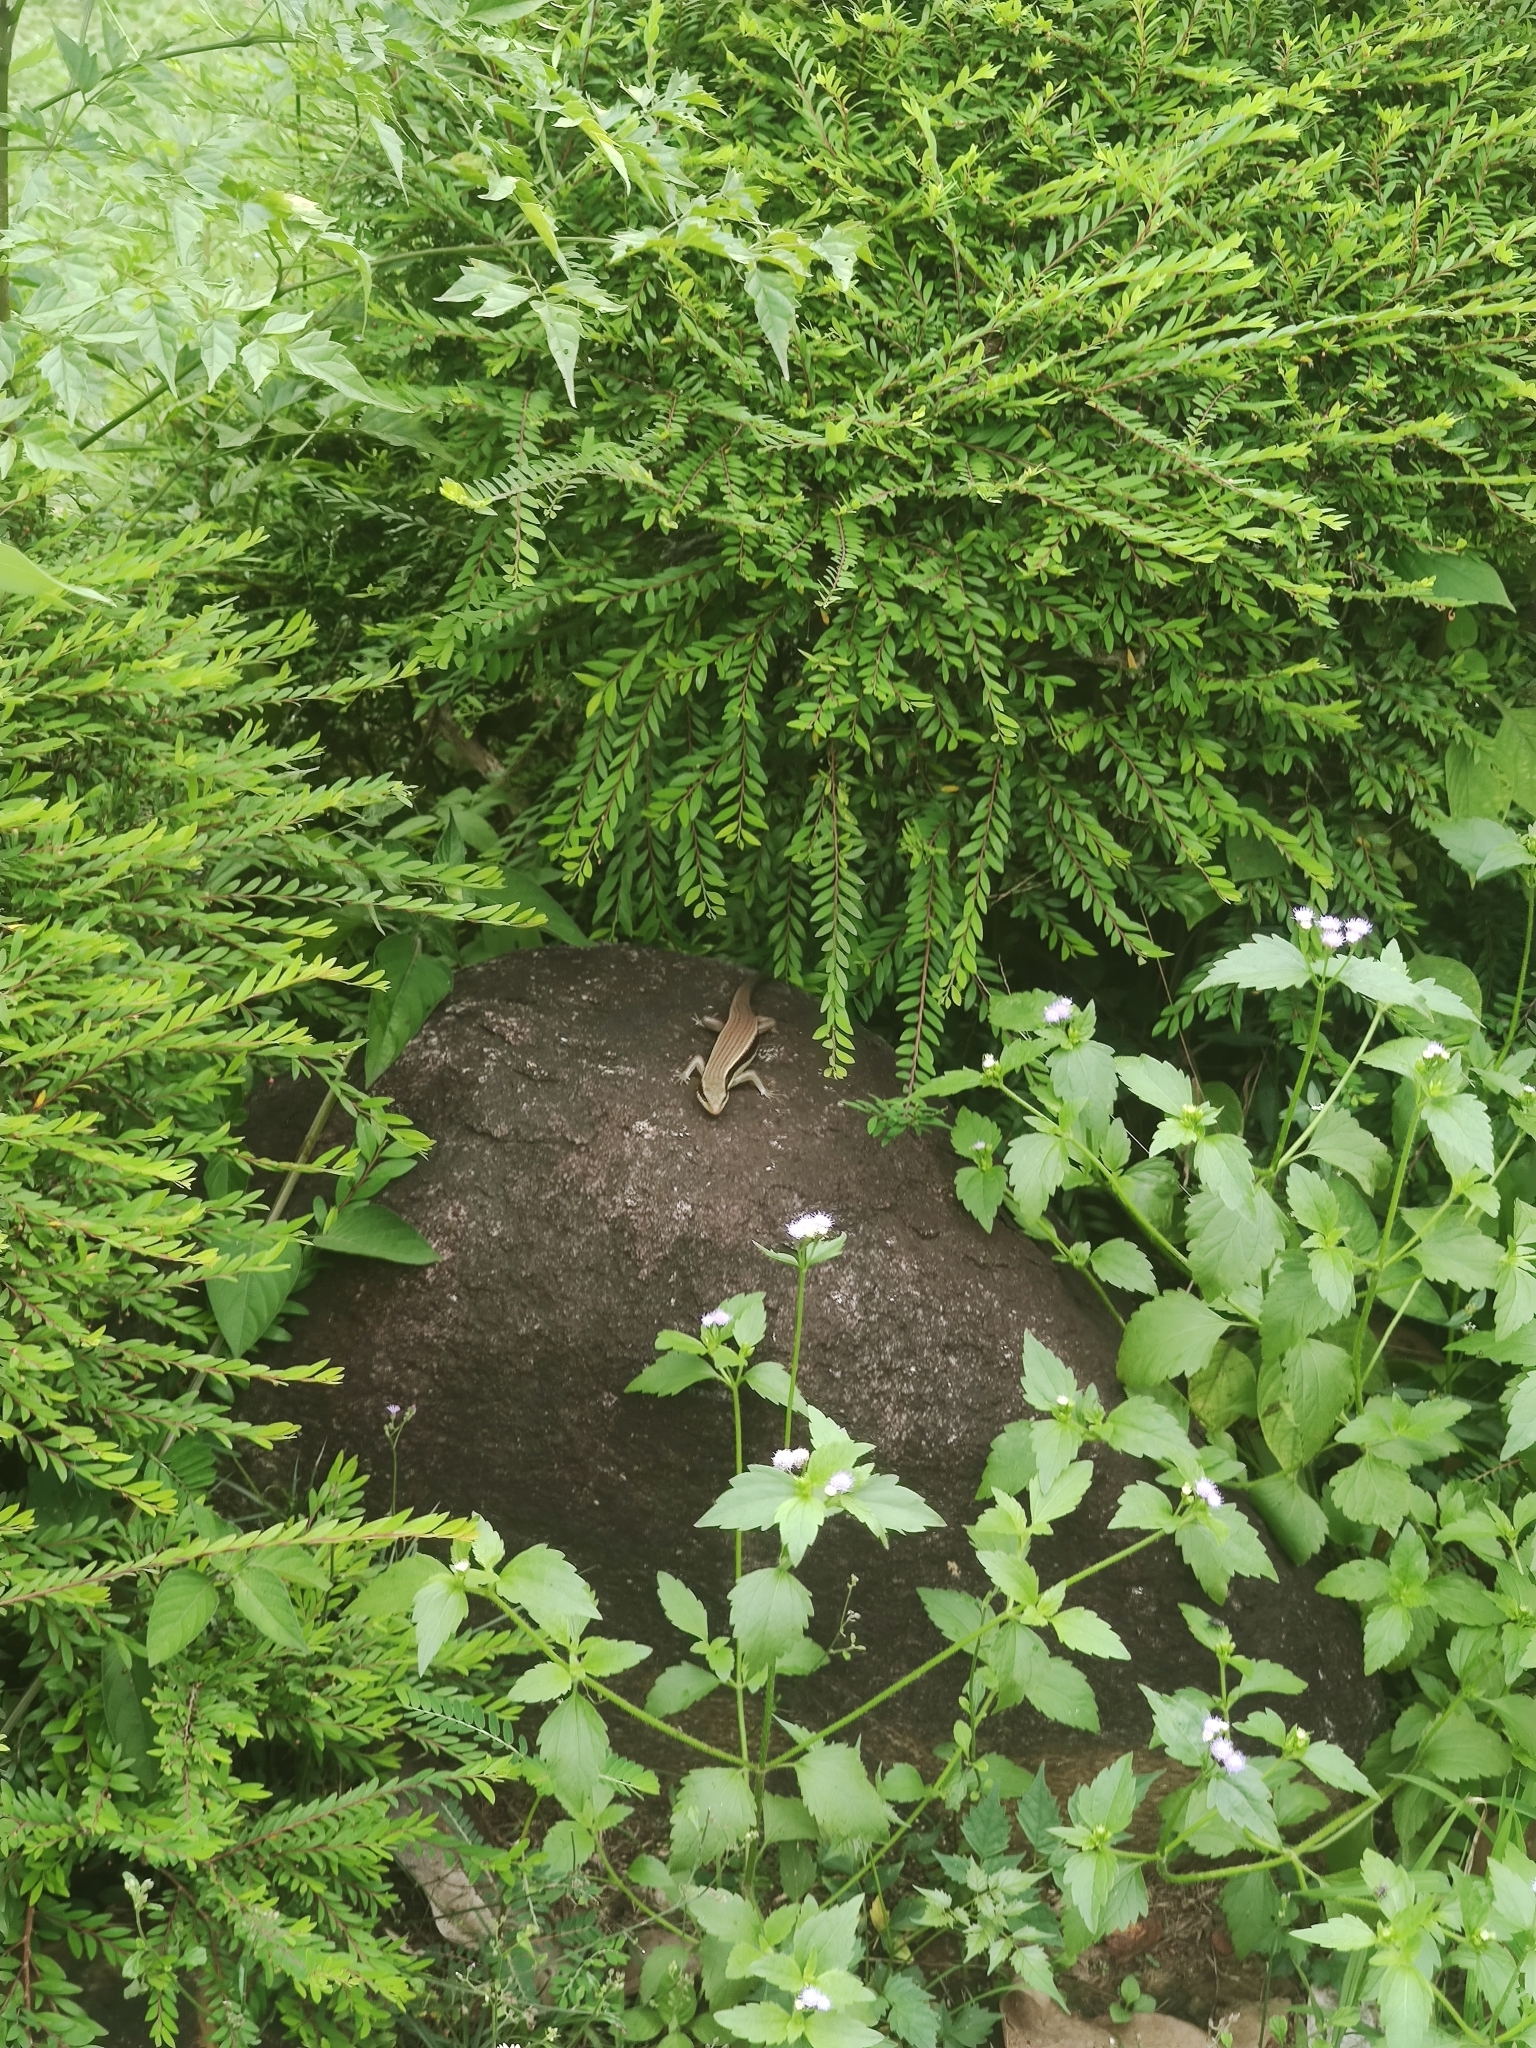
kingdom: Animalia
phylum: Chordata
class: Squamata
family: Scincidae
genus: Eutropis
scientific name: Eutropis longicaudata
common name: Long-tailed sun skink
